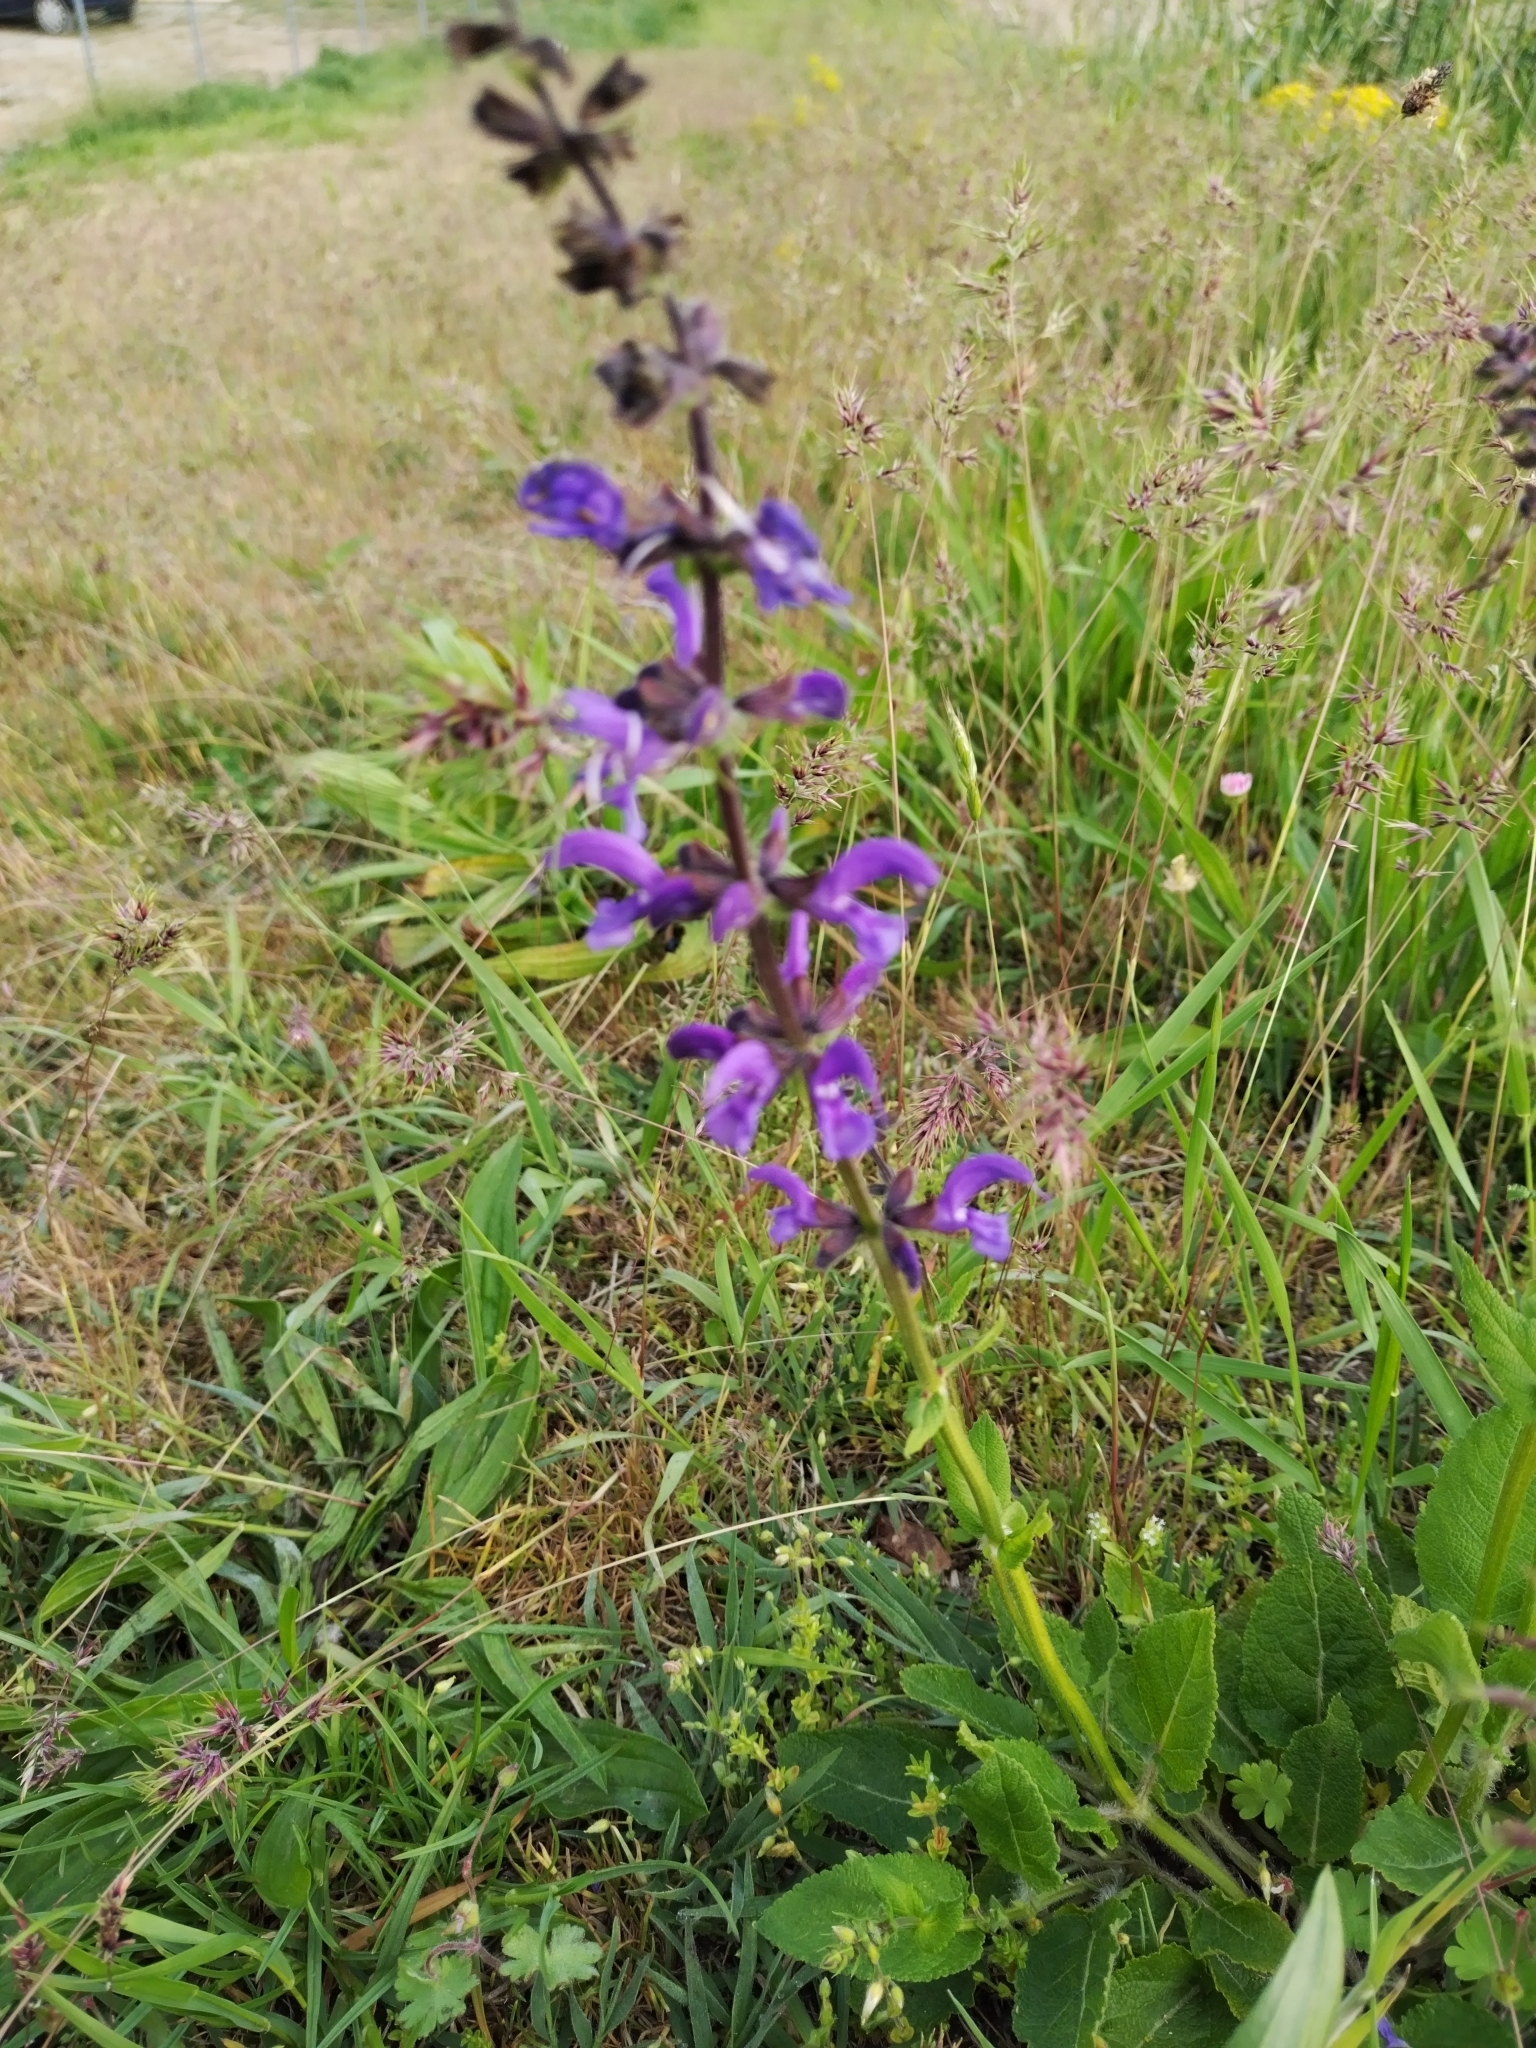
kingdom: Plantae
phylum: Tracheophyta
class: Magnoliopsida
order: Lamiales
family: Lamiaceae
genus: Salvia
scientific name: Salvia pratensis
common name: Meadow sage
